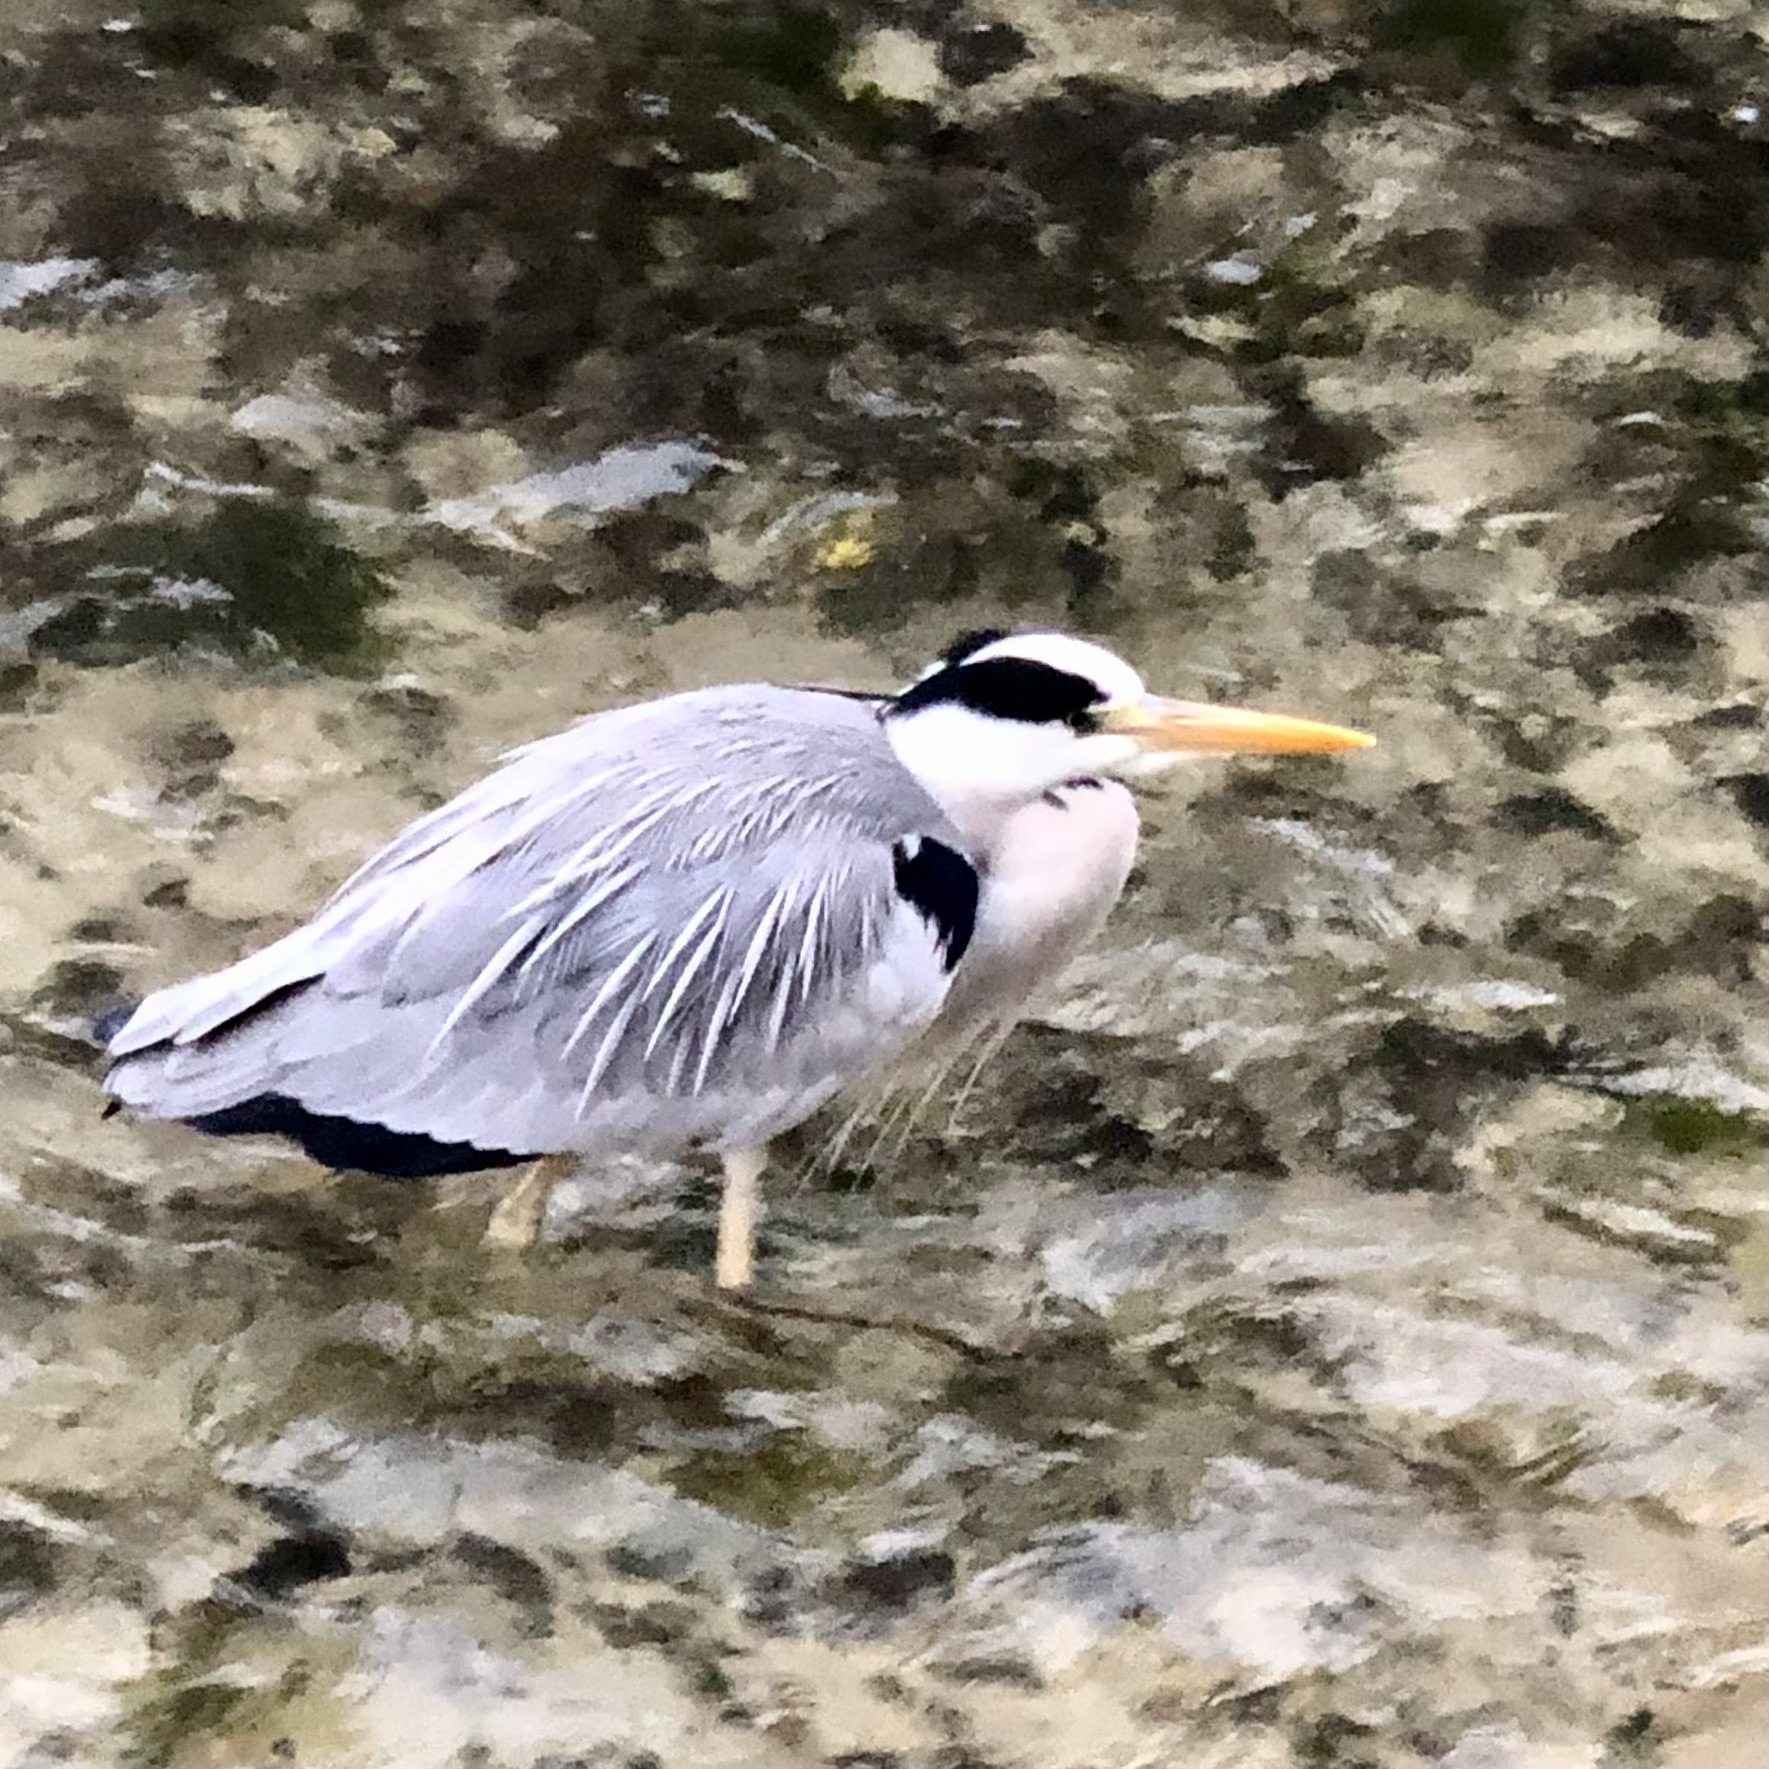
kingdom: Animalia
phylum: Chordata
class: Aves
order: Pelecaniformes
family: Ardeidae
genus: Ardea
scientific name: Ardea cinerea
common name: Grey heron
